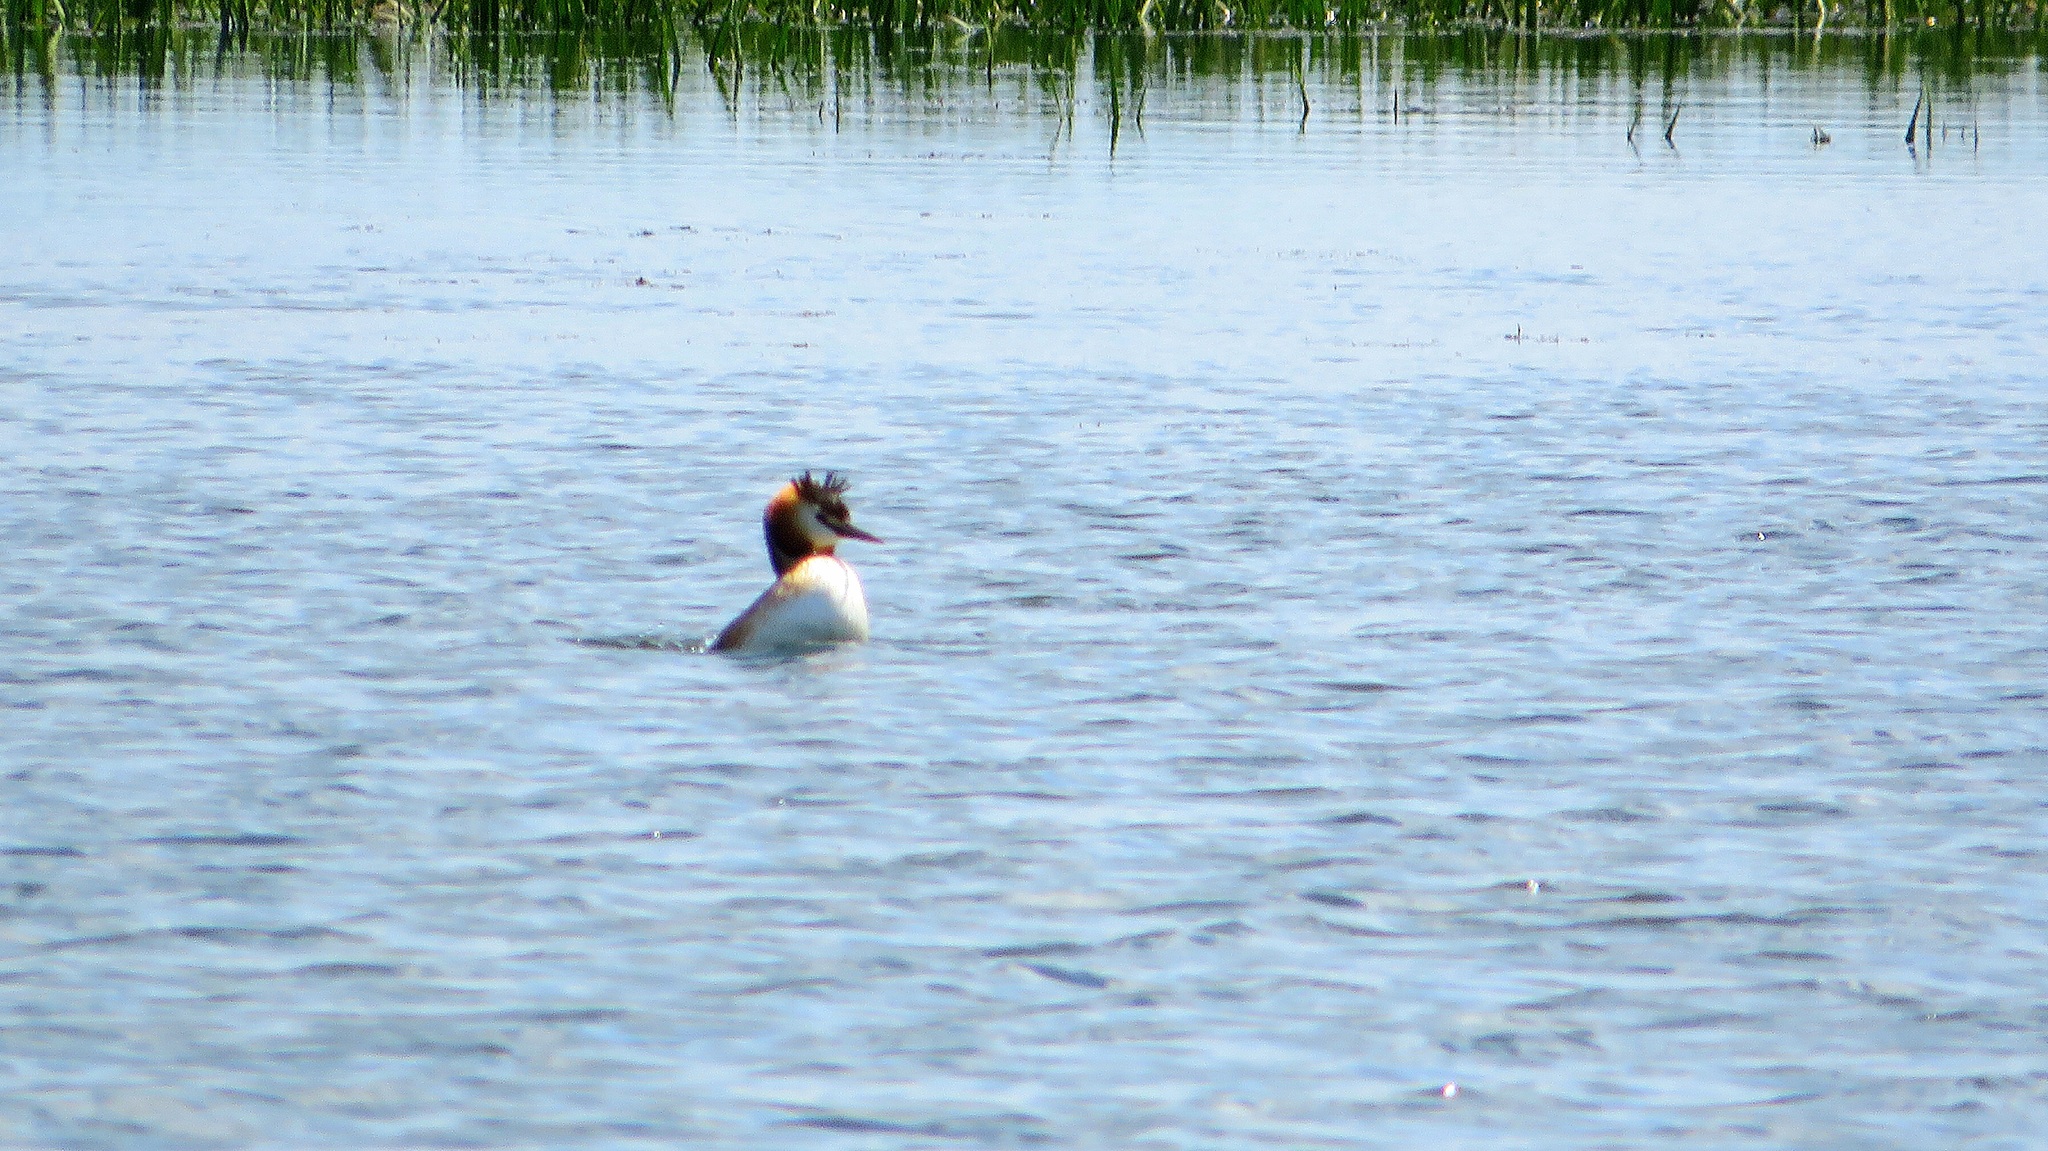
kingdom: Animalia
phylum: Chordata
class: Aves
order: Podicipediformes
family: Podicipedidae
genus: Podiceps
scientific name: Podiceps cristatus
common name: Great crested grebe
